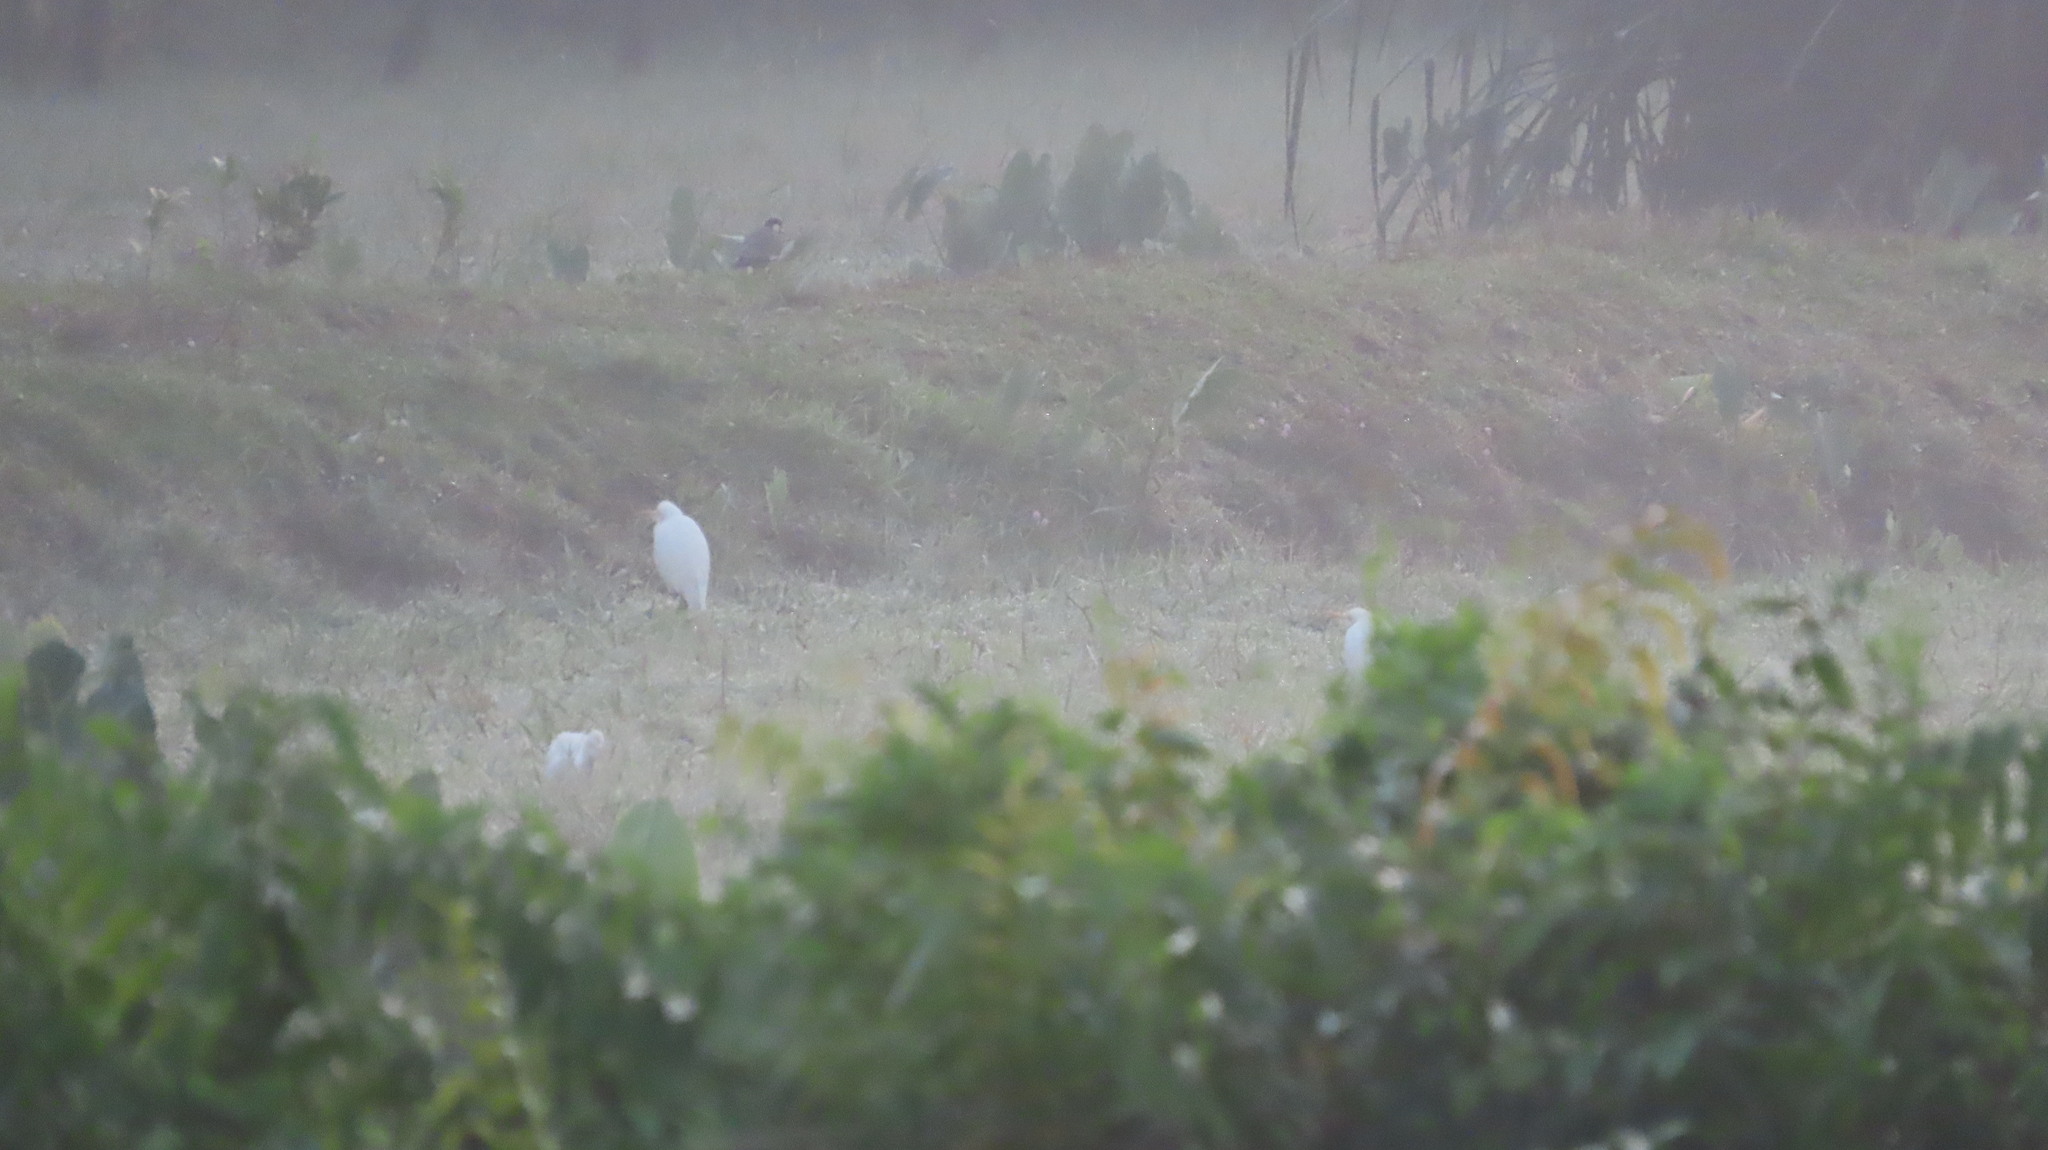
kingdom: Animalia
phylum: Chordata
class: Aves
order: Pelecaniformes
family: Ardeidae
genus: Bubulcus
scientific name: Bubulcus coromandus
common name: Eastern cattle egret
